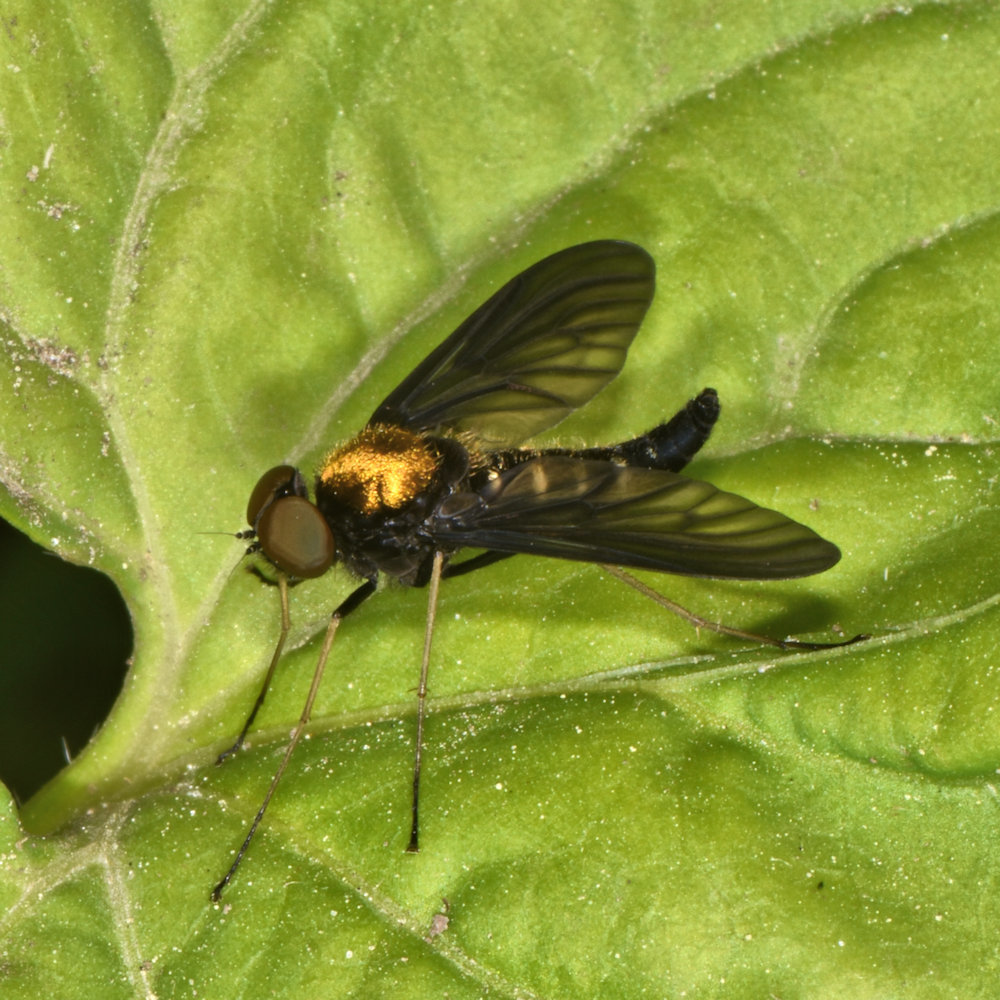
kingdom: Animalia
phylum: Arthropoda
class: Insecta
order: Diptera
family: Rhagionidae
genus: Chrysopilus
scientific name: Chrysopilus thoracicus
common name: Golden-backed snipe fly
